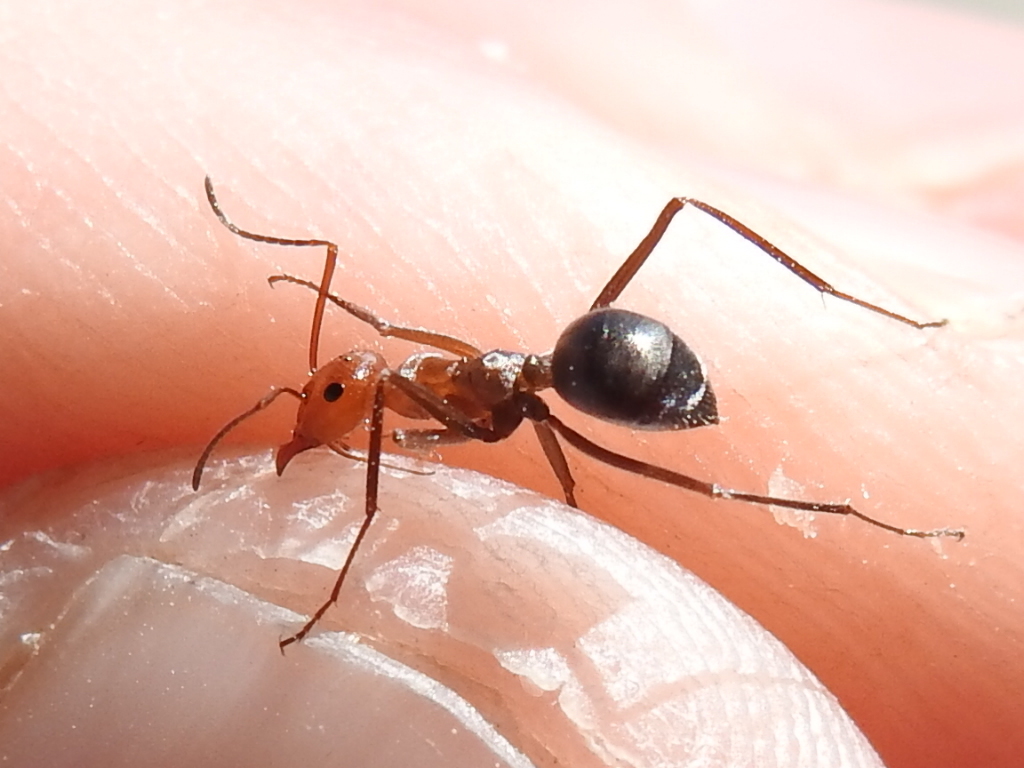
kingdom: Animalia
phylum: Arthropoda
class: Insecta
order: Hymenoptera
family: Formicidae
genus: Myrmecocystus
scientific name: Myrmecocystus placodops
